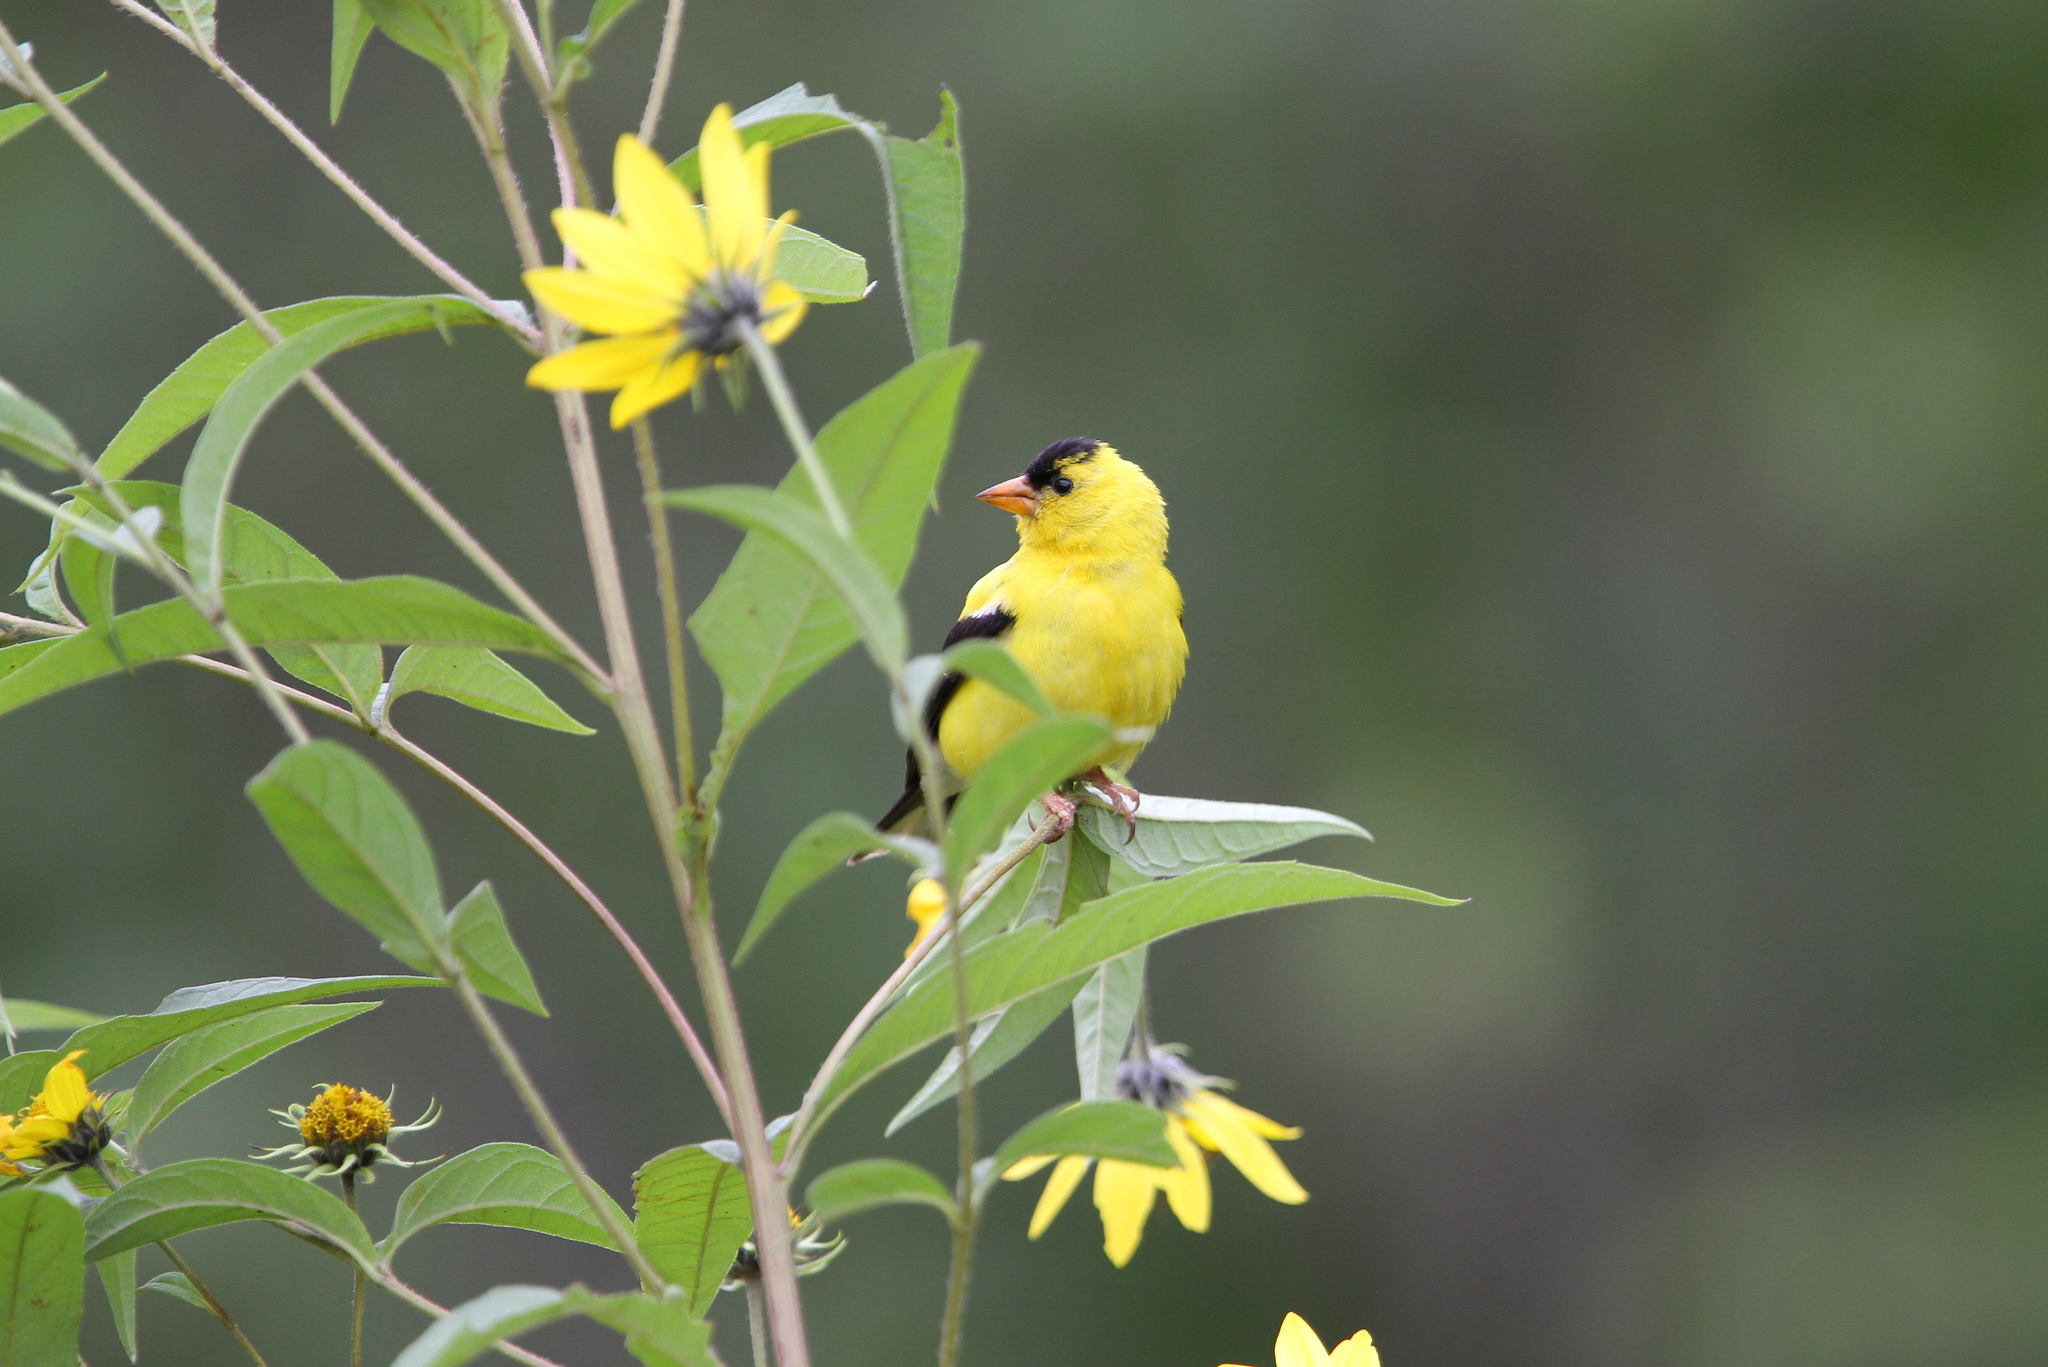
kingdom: Animalia
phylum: Chordata
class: Aves
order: Passeriformes
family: Fringillidae
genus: Spinus
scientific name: Spinus tristis
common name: American goldfinch
